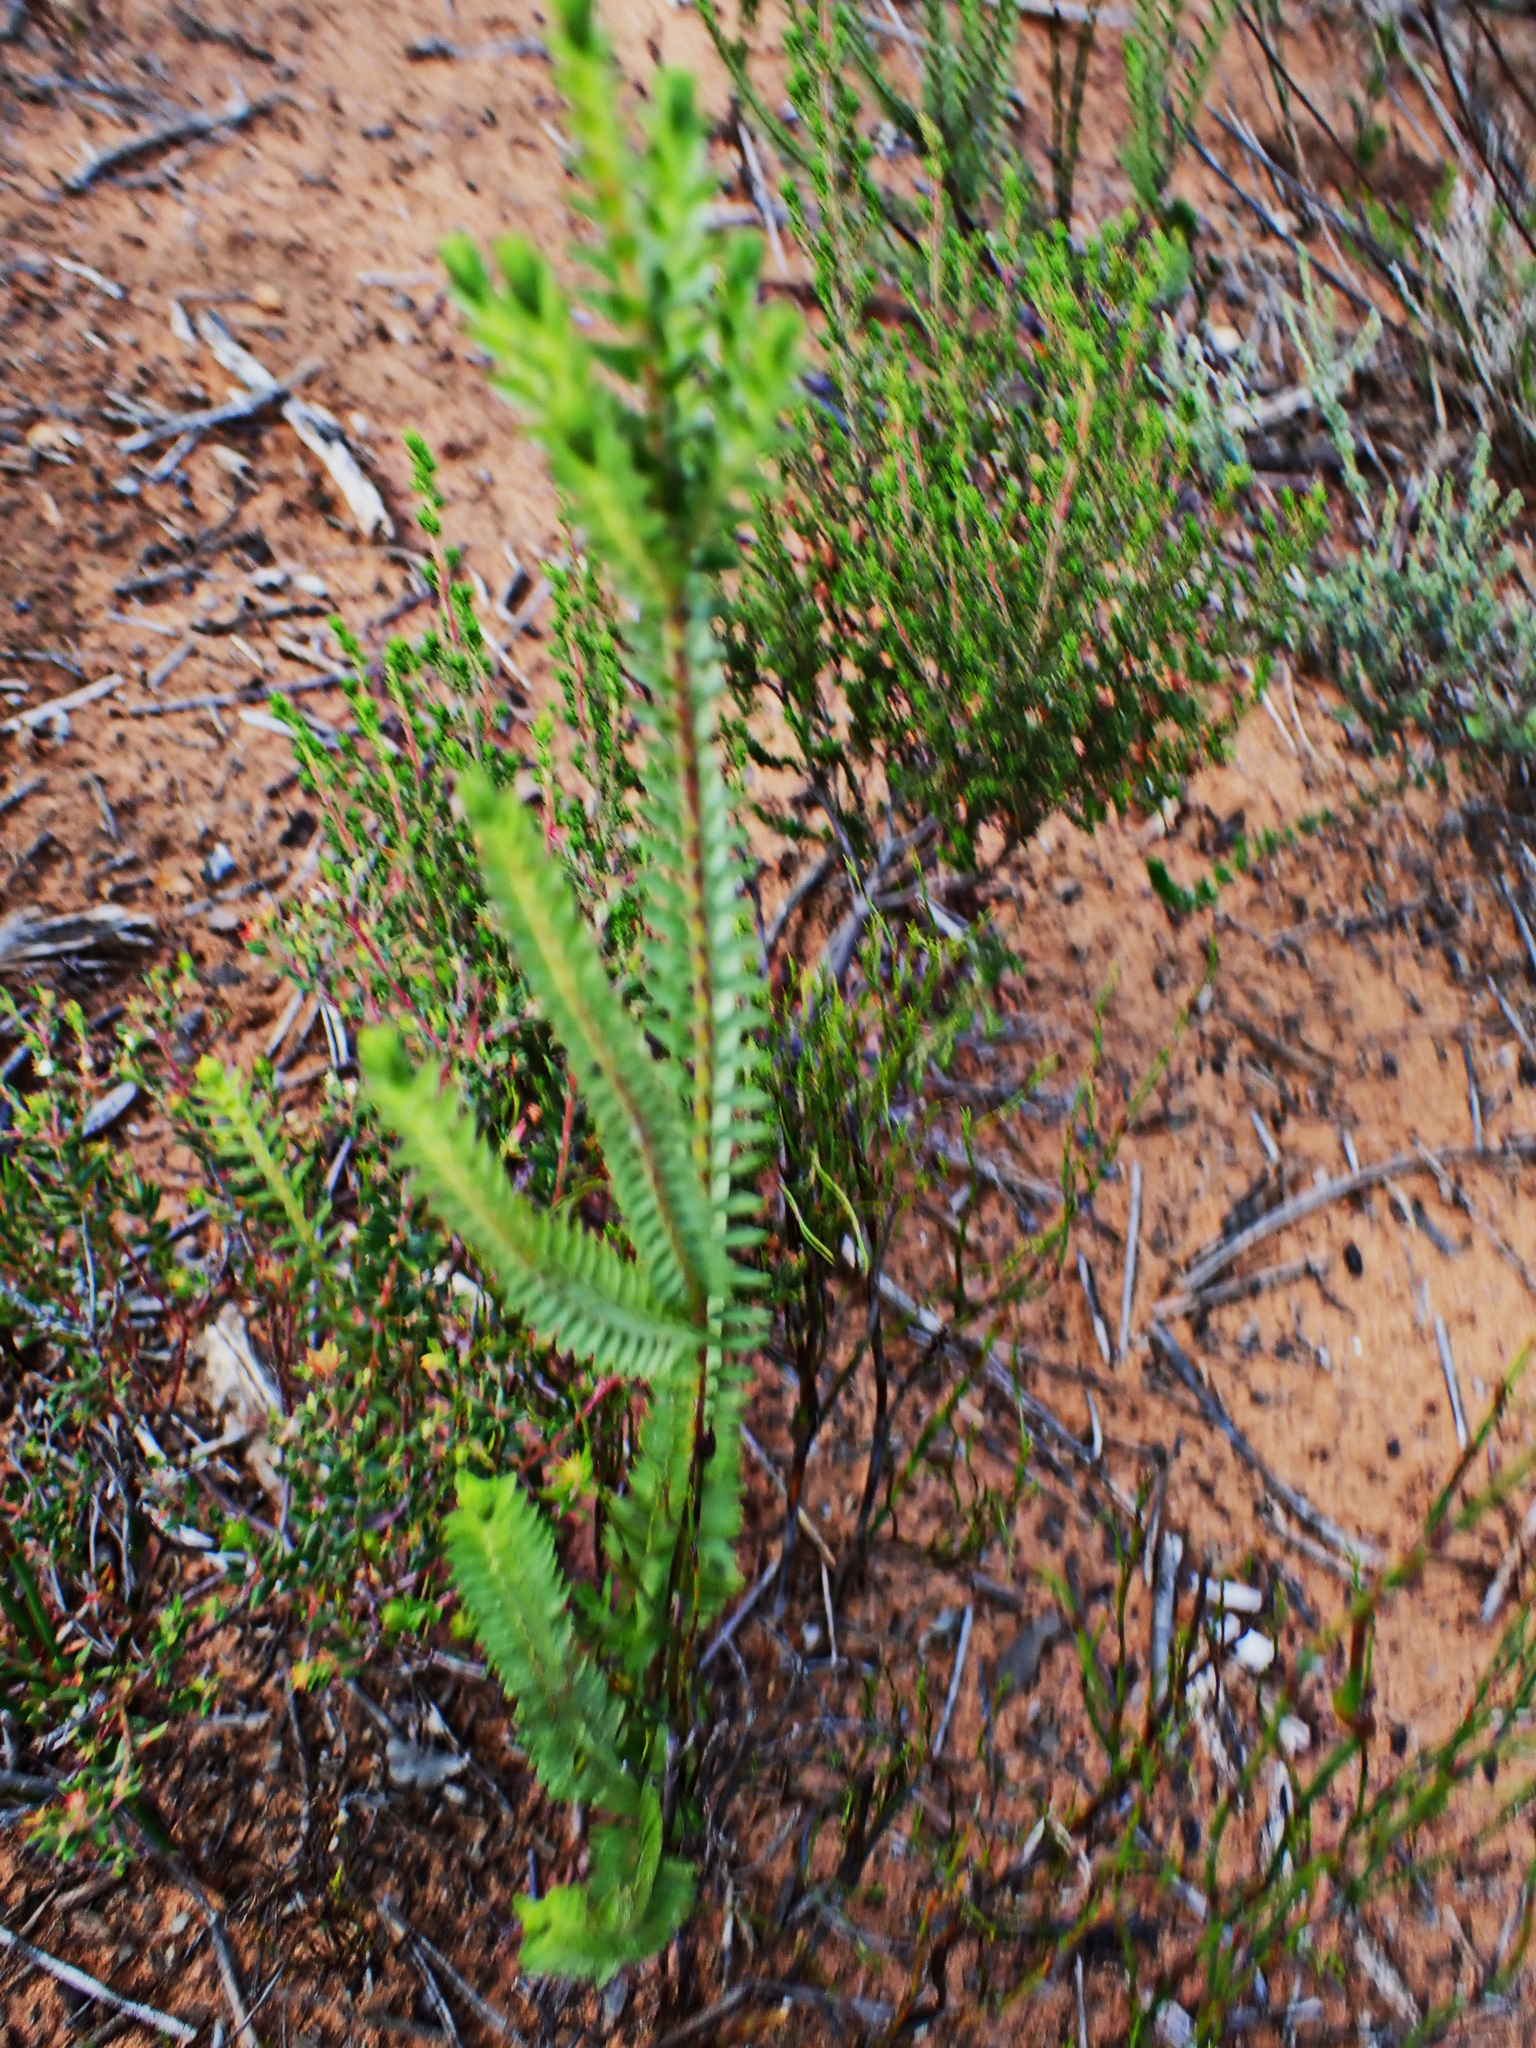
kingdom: Plantae
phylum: Tracheophyta
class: Magnoliopsida
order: Malvales
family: Thymelaeaceae
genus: Struthiola
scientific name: Struthiola rigida
